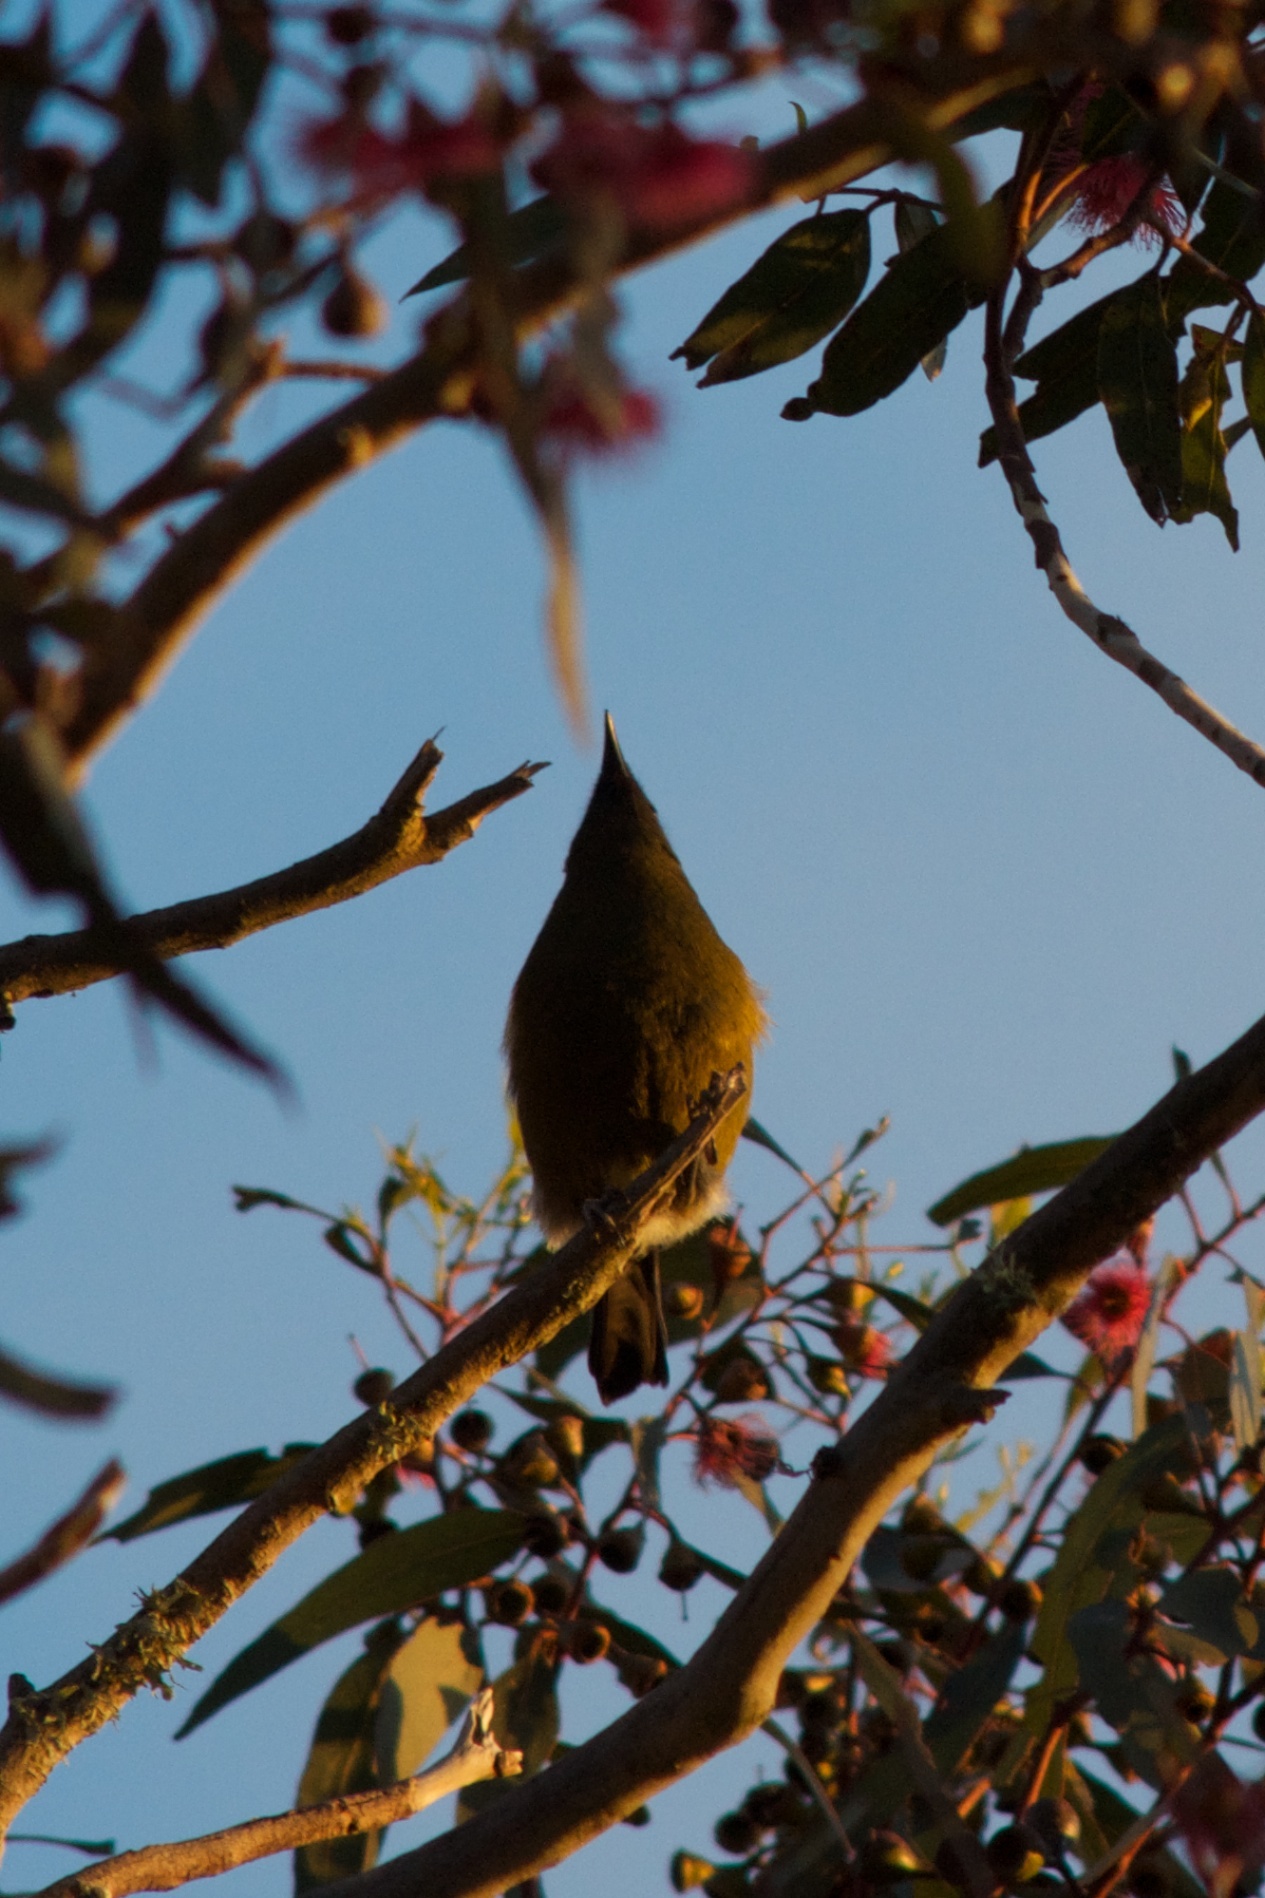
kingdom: Animalia
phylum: Chordata
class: Aves
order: Passeriformes
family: Meliphagidae
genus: Anthornis
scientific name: Anthornis melanura
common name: New zealand bellbird
